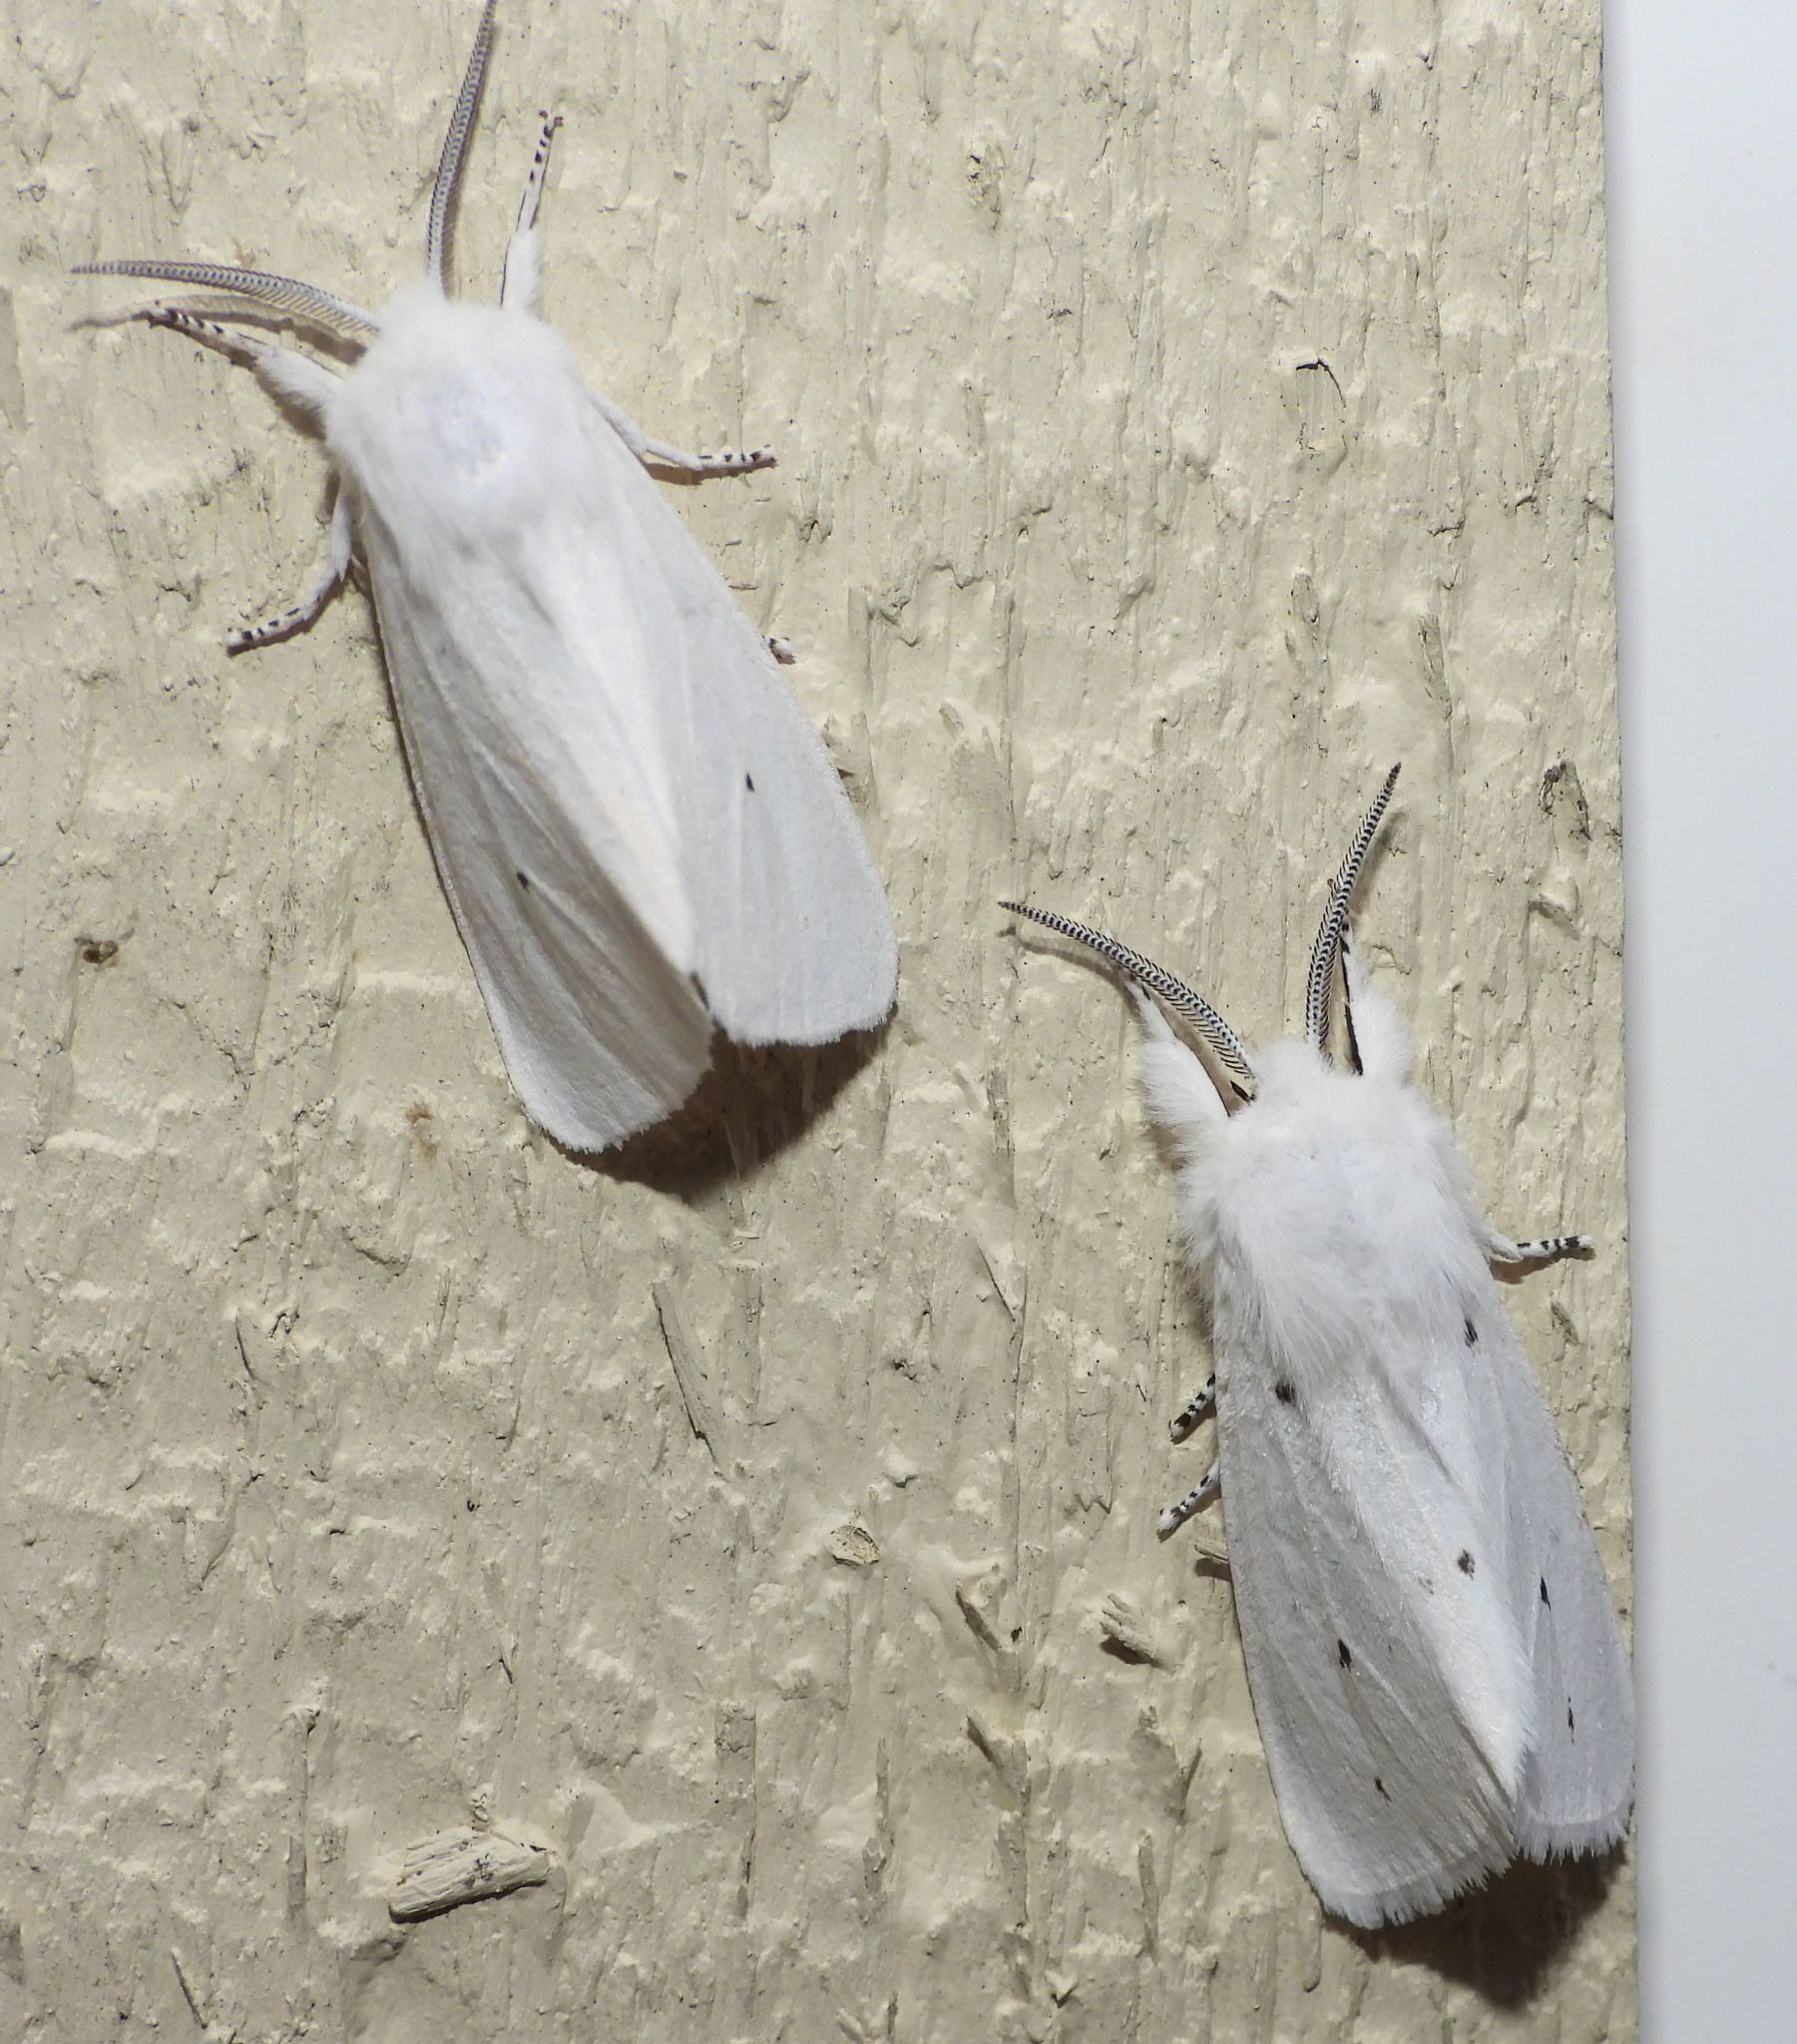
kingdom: Animalia
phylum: Arthropoda
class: Insecta
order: Lepidoptera
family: Erebidae
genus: Spilosoma
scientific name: Spilosoma virginica
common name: Virginia tiger moth
